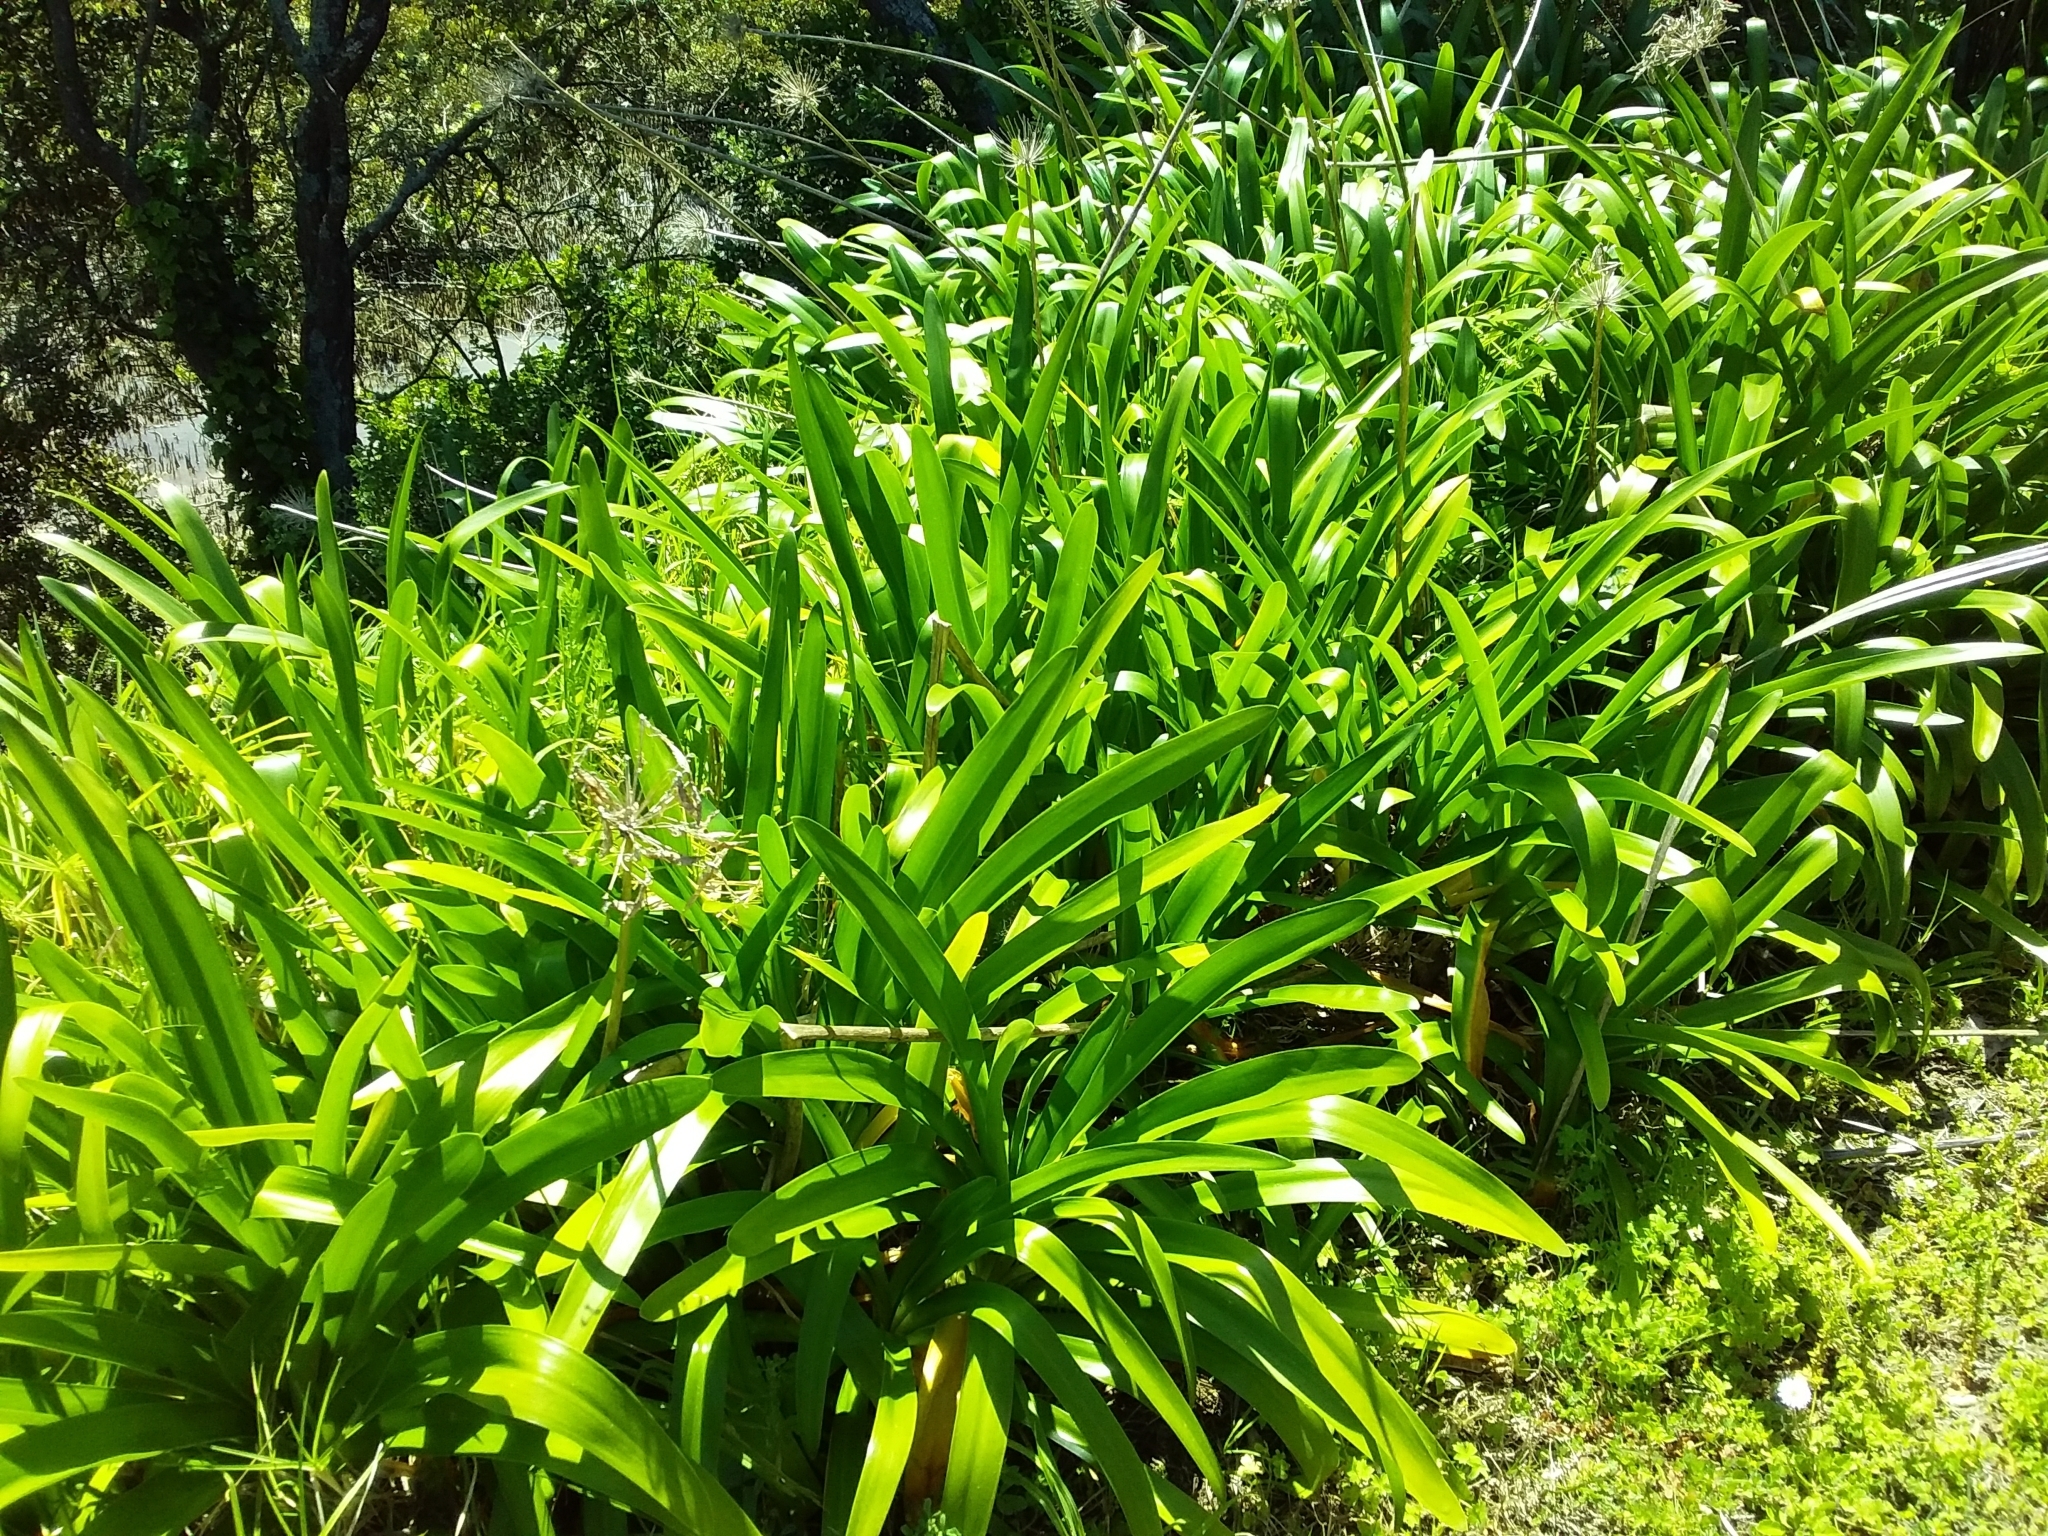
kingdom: Plantae
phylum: Tracheophyta
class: Liliopsida
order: Asparagales
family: Amaryllidaceae
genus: Agapanthus
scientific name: Agapanthus praecox
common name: African-lily
